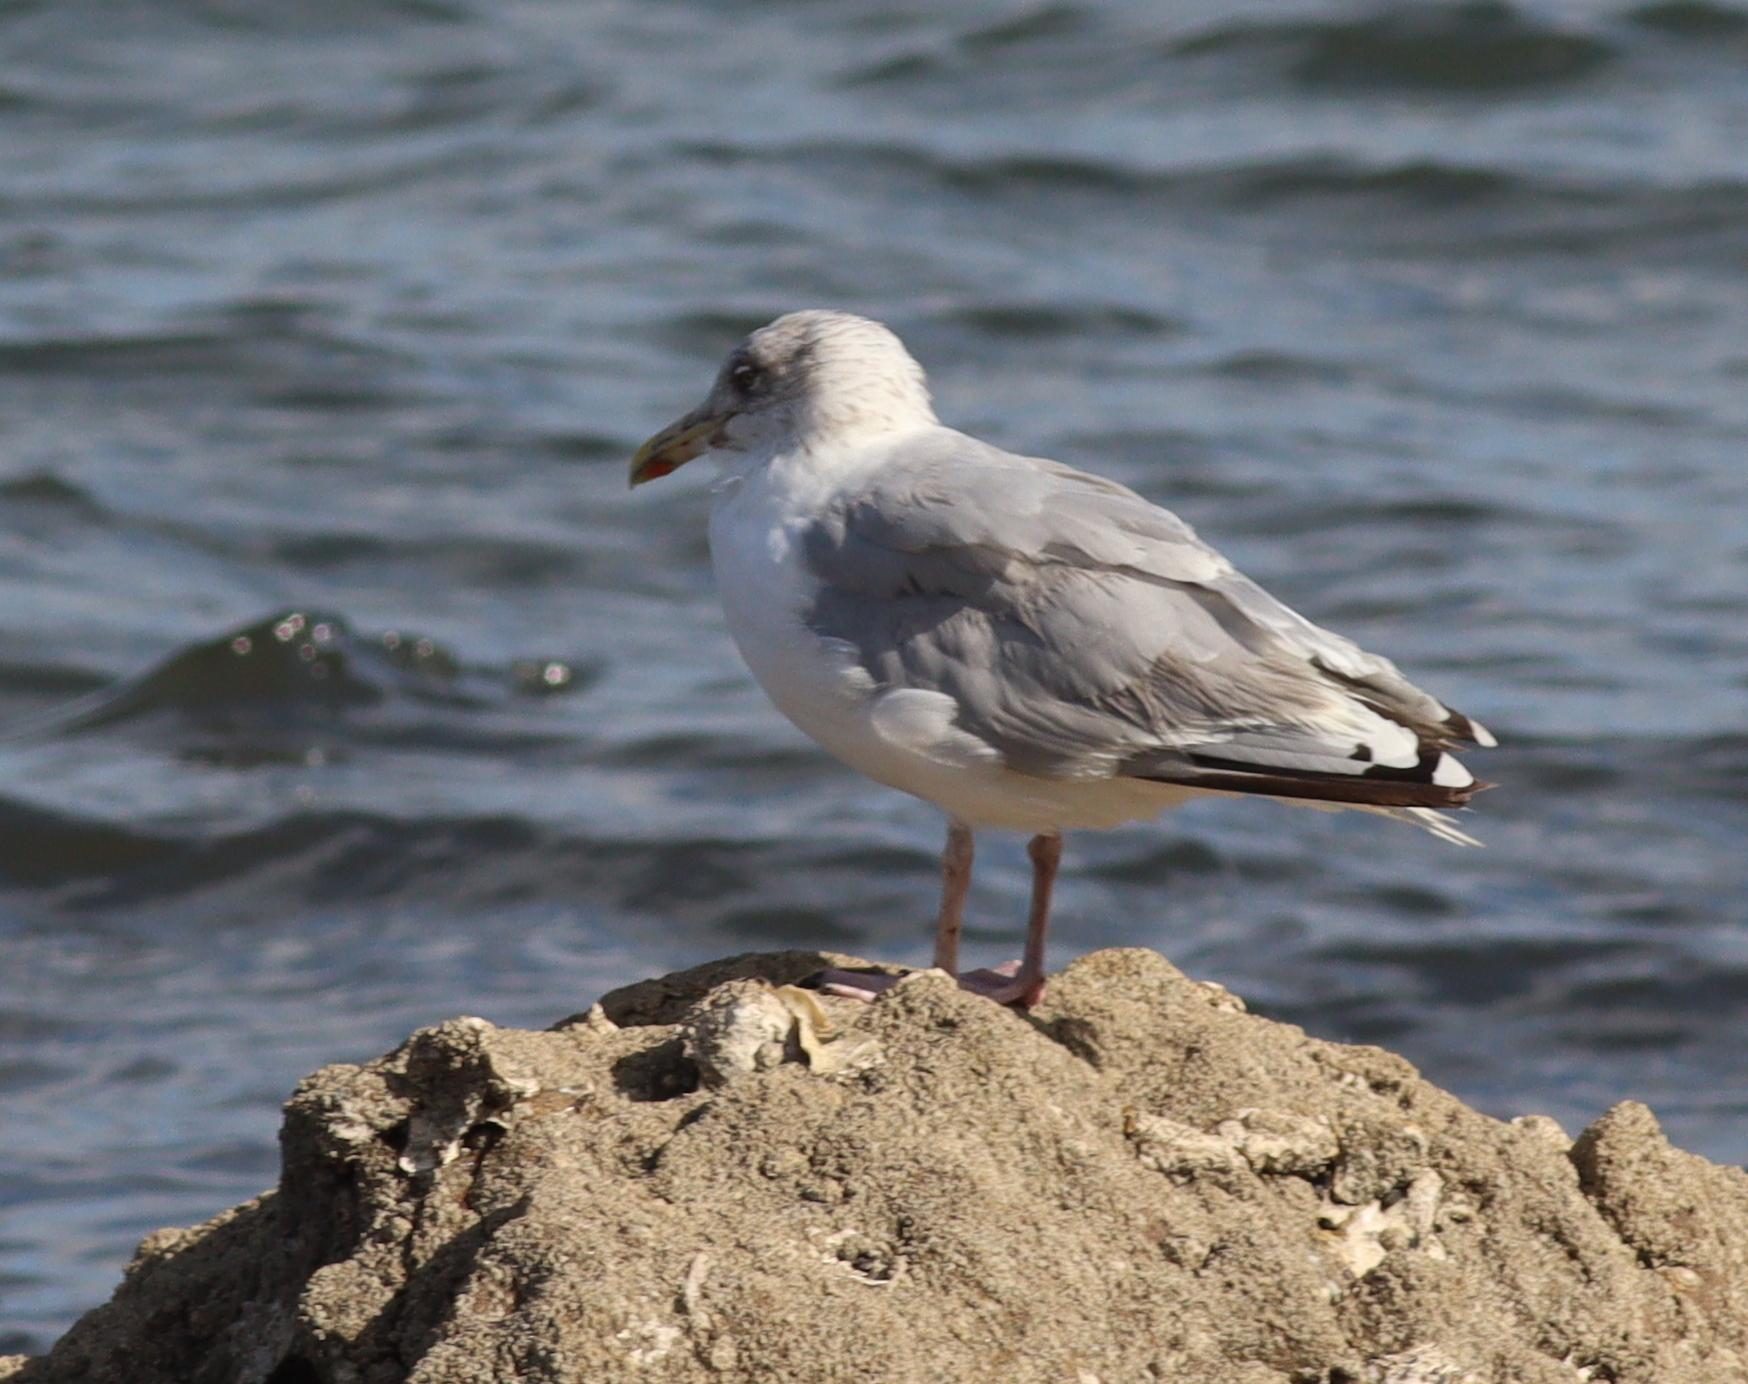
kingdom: Animalia
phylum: Chordata
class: Aves
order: Charadriiformes
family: Laridae
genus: Larus
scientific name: Larus argentatus
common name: Herring gull
